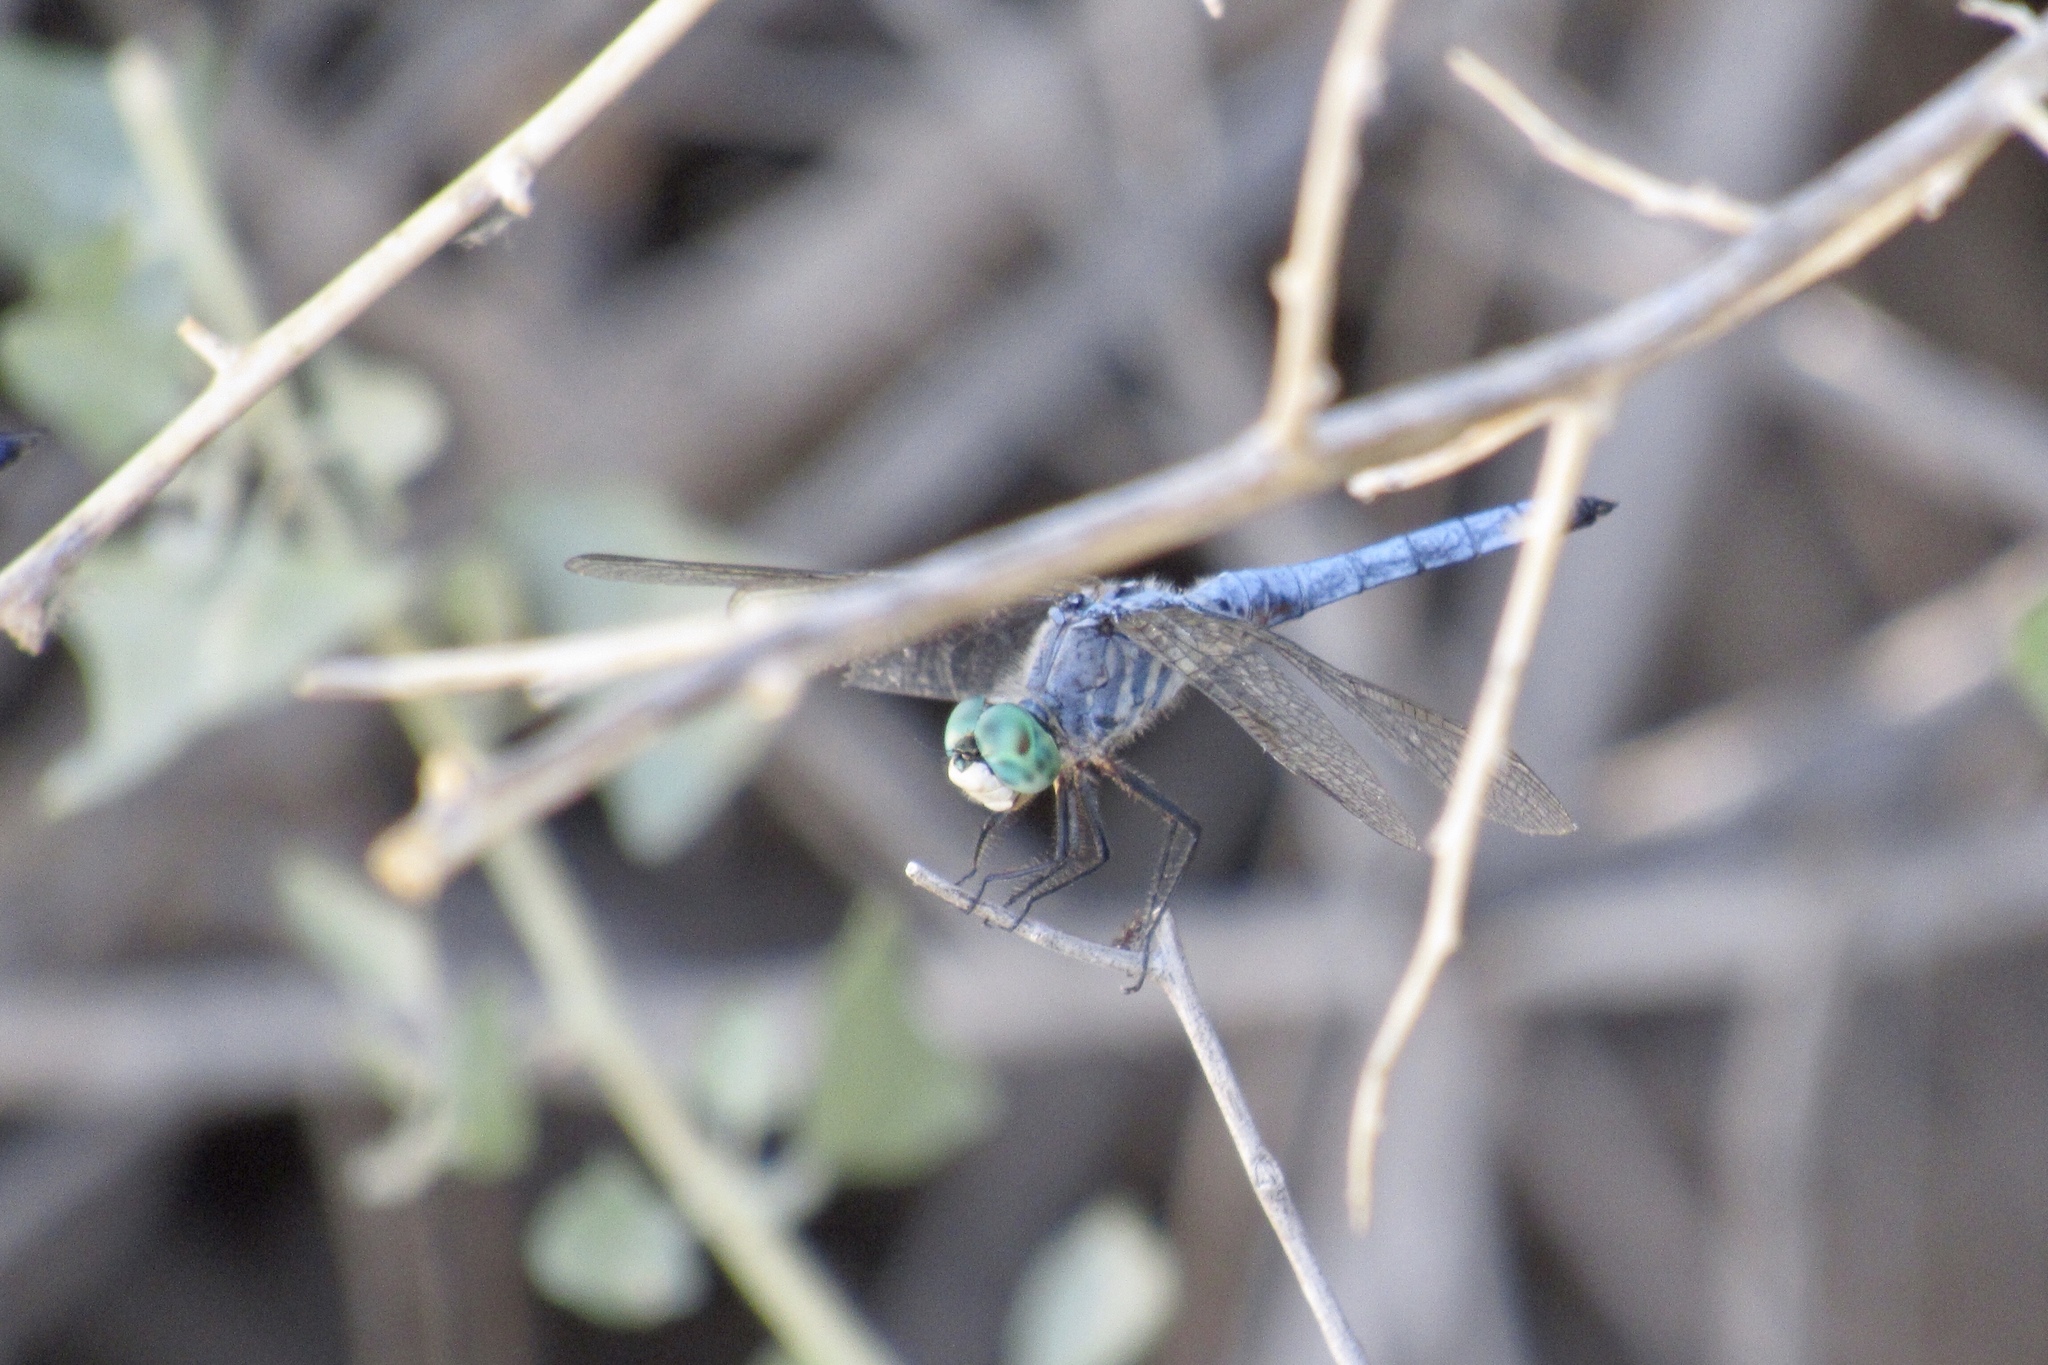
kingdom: Animalia
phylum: Arthropoda
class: Insecta
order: Odonata
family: Libellulidae
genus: Pachydiplax
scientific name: Pachydiplax longipennis
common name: Blue dasher
